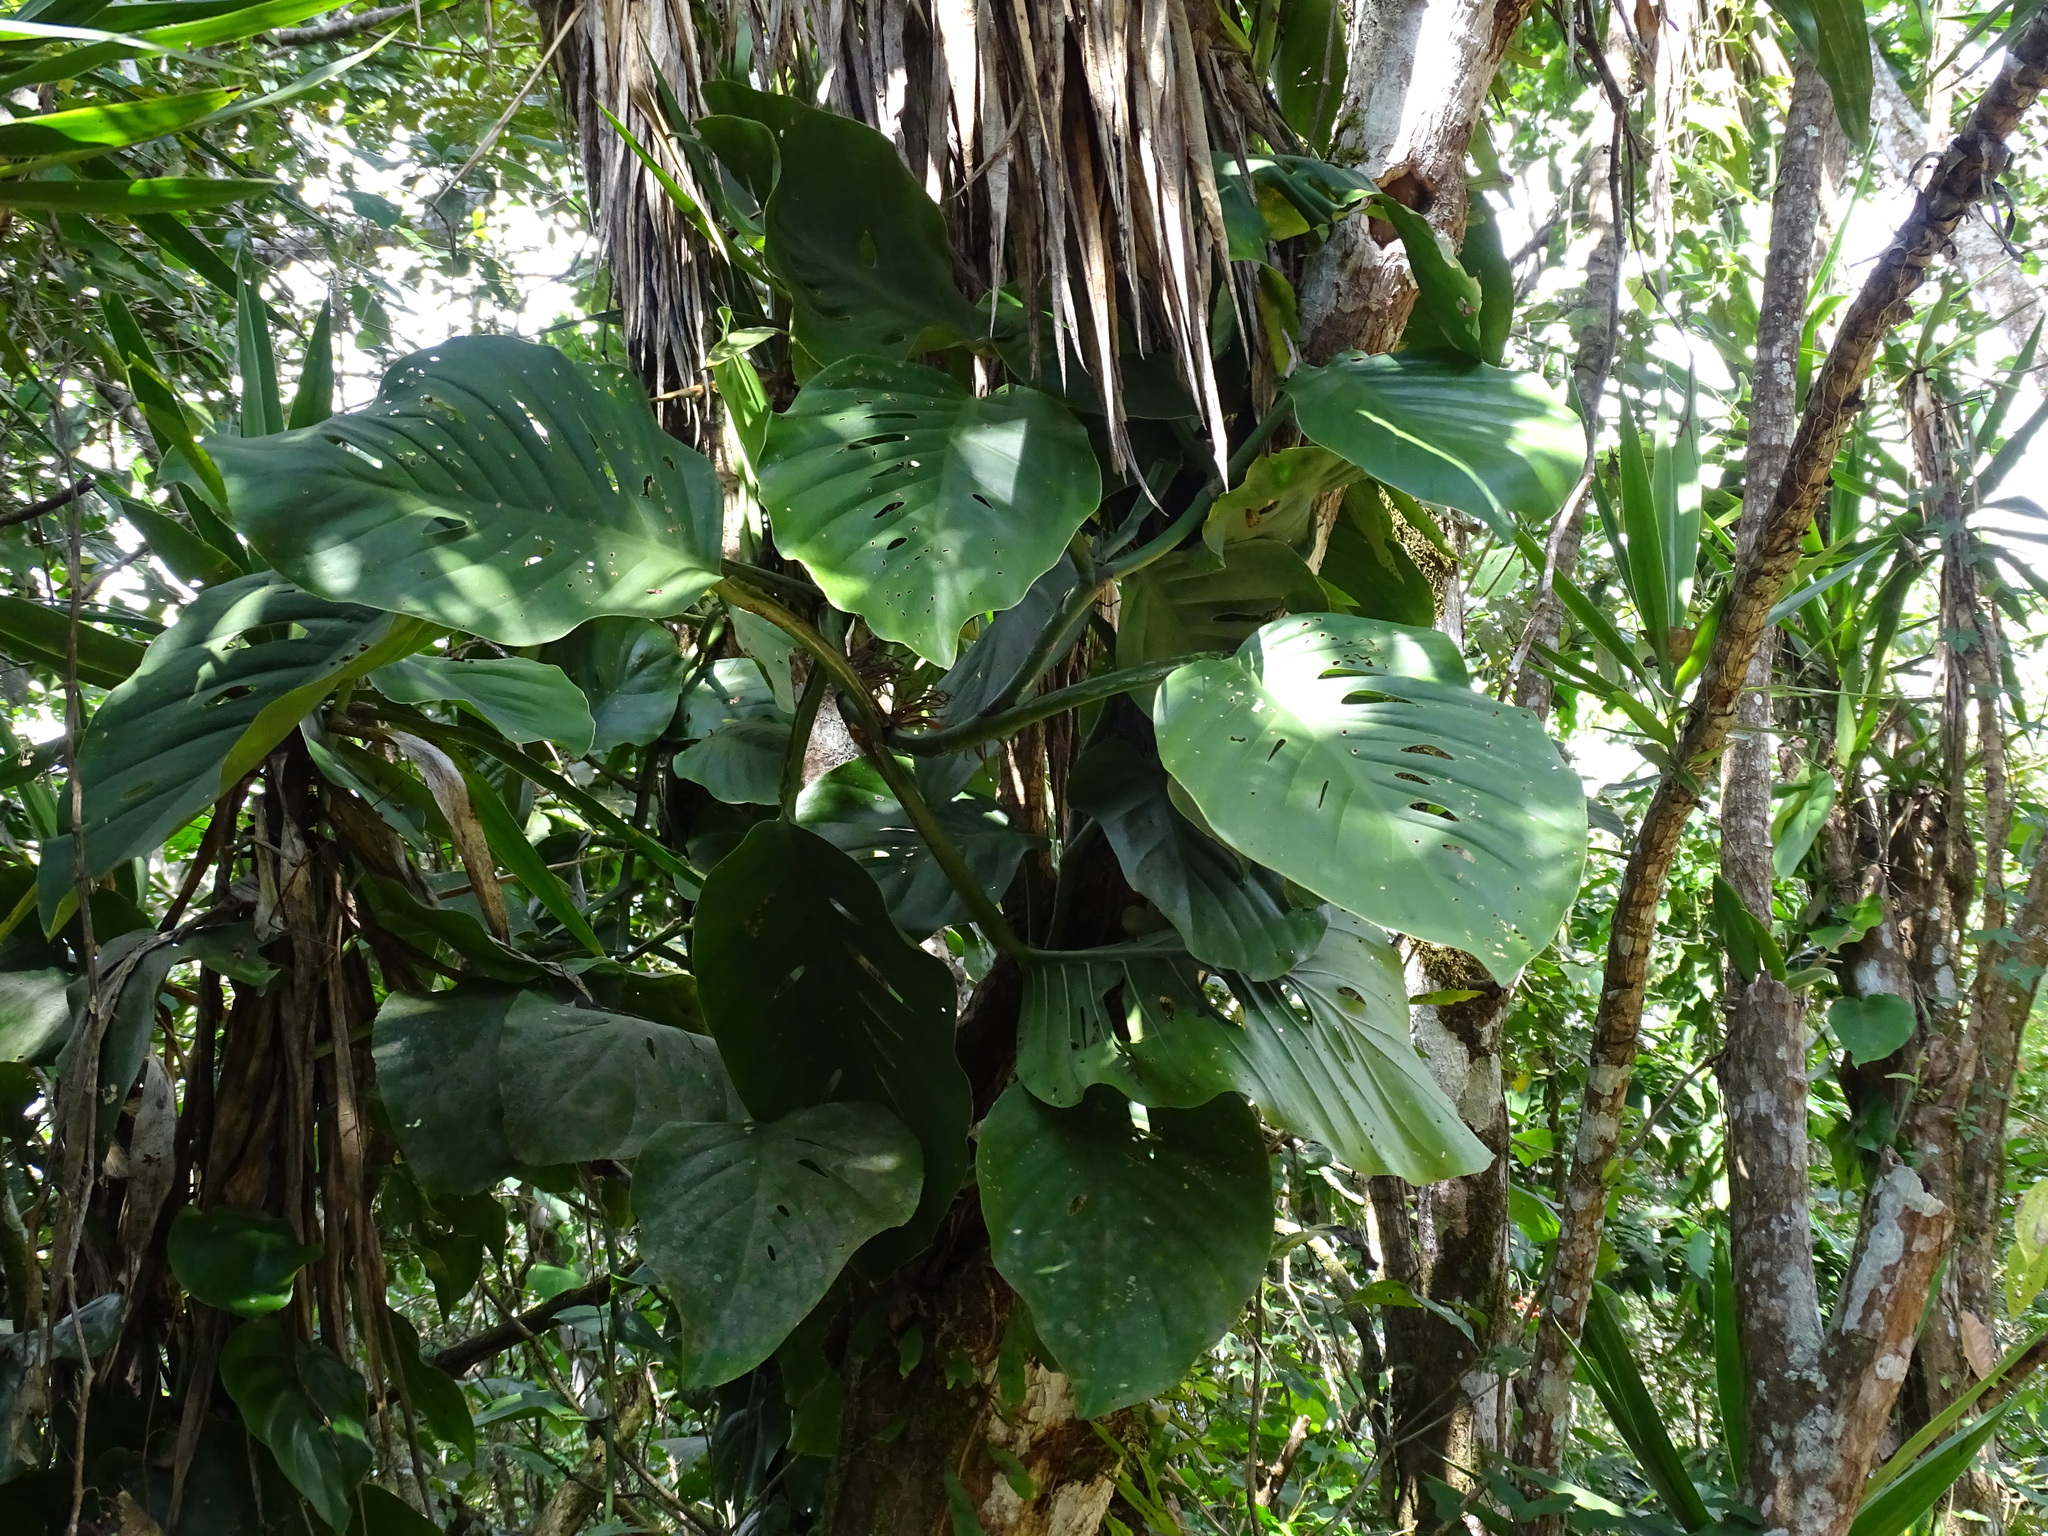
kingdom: Plantae
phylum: Tracheophyta
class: Liliopsida
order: Alismatales
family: Araceae
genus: Monstera
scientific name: Monstera acuminata
